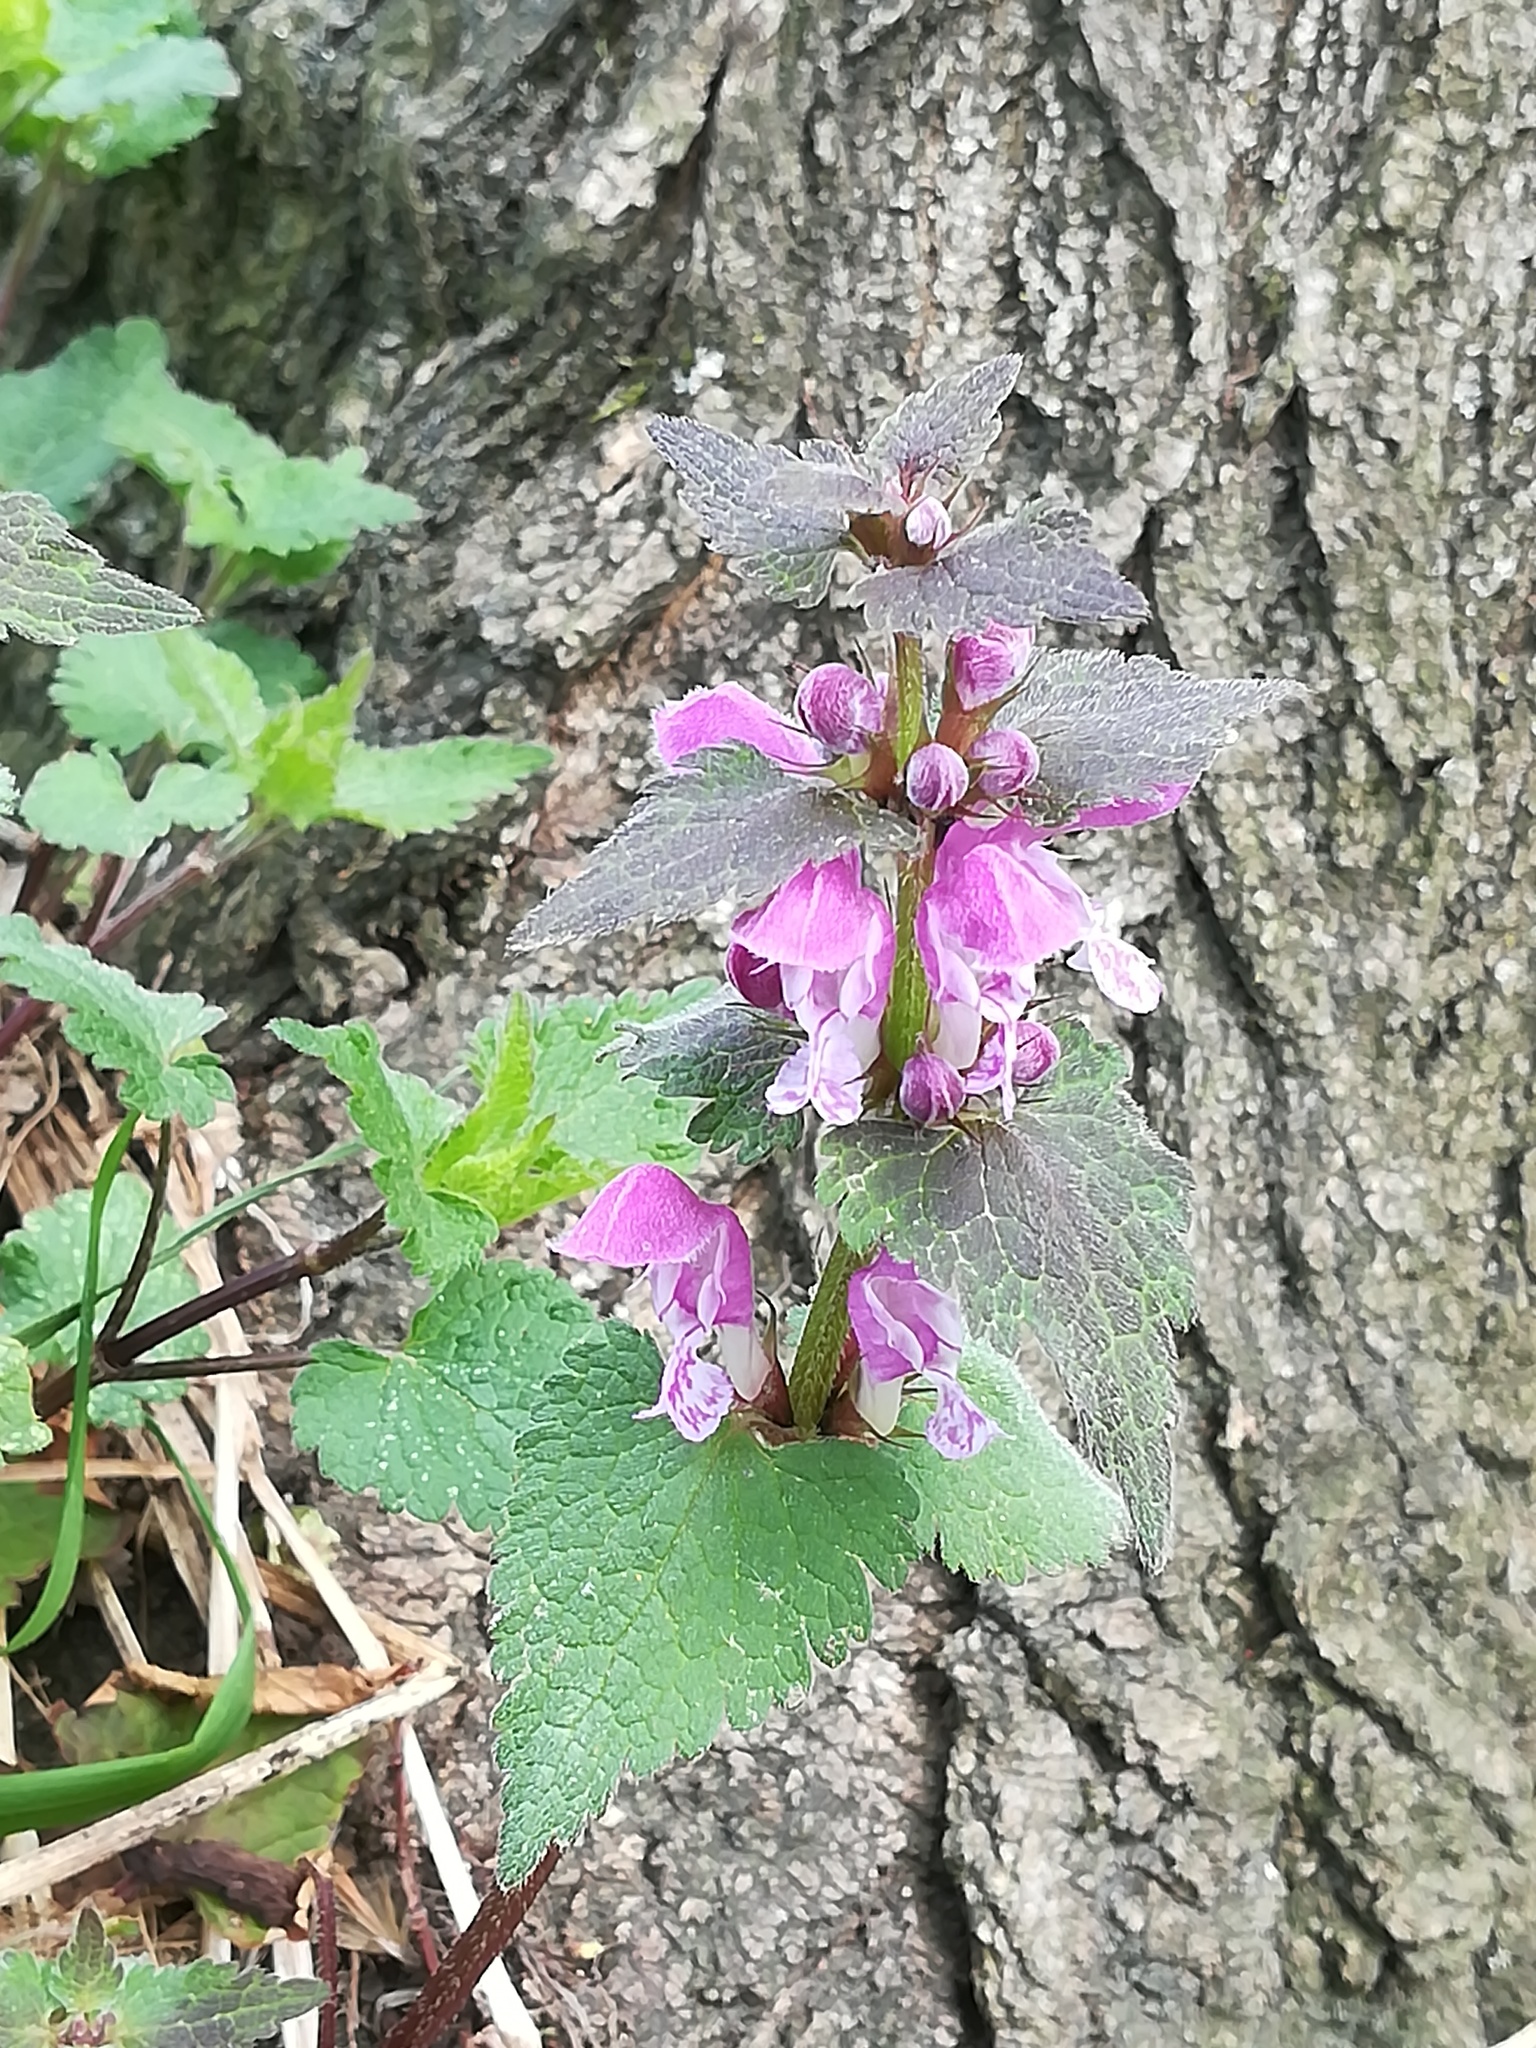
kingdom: Plantae
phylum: Tracheophyta
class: Magnoliopsida
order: Lamiales
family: Lamiaceae
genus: Lamium
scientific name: Lamium maculatum
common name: Spotted dead-nettle
